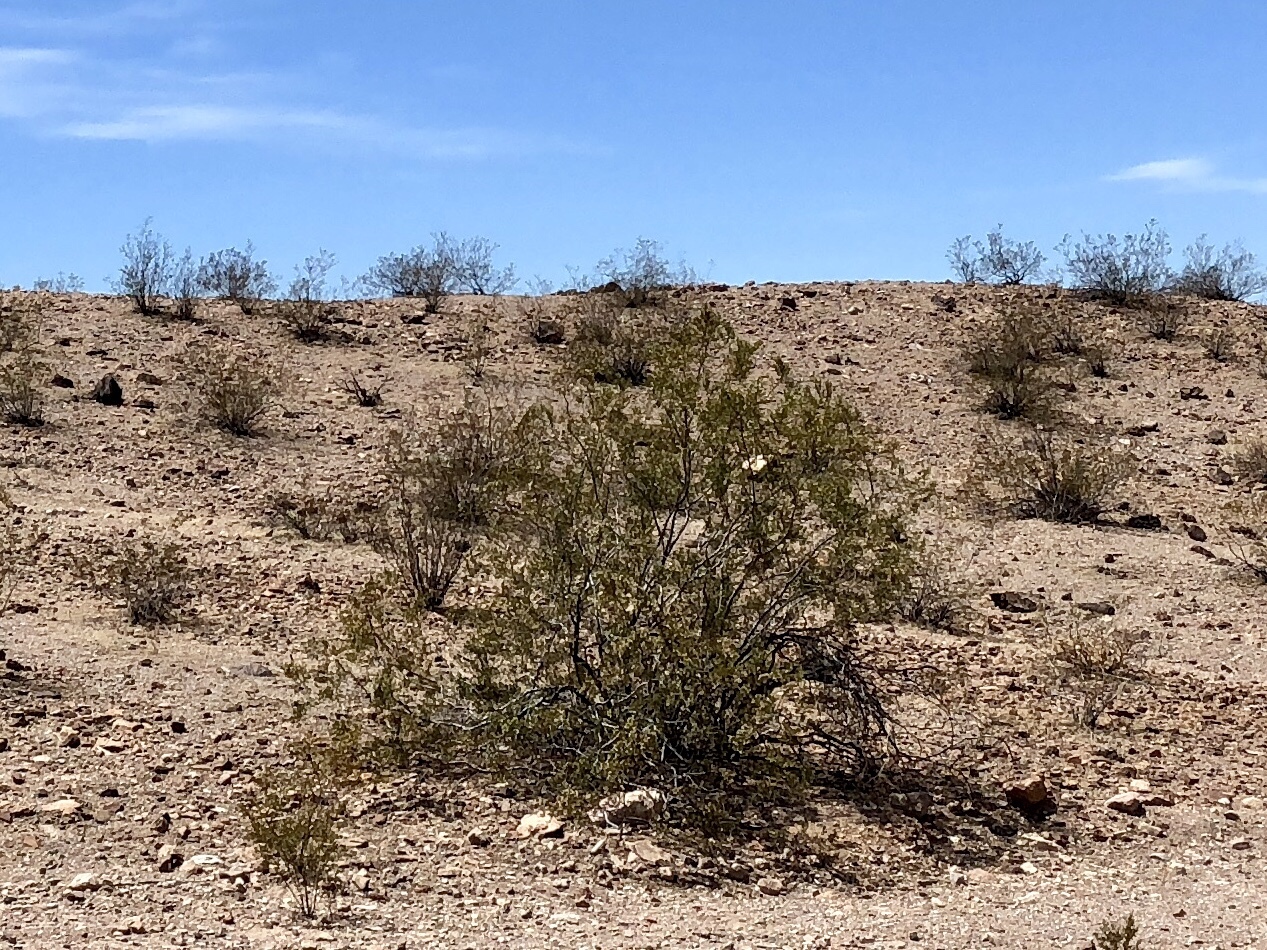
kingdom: Plantae
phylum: Tracheophyta
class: Magnoliopsida
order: Zygophyllales
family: Zygophyllaceae
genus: Larrea
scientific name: Larrea tridentata
